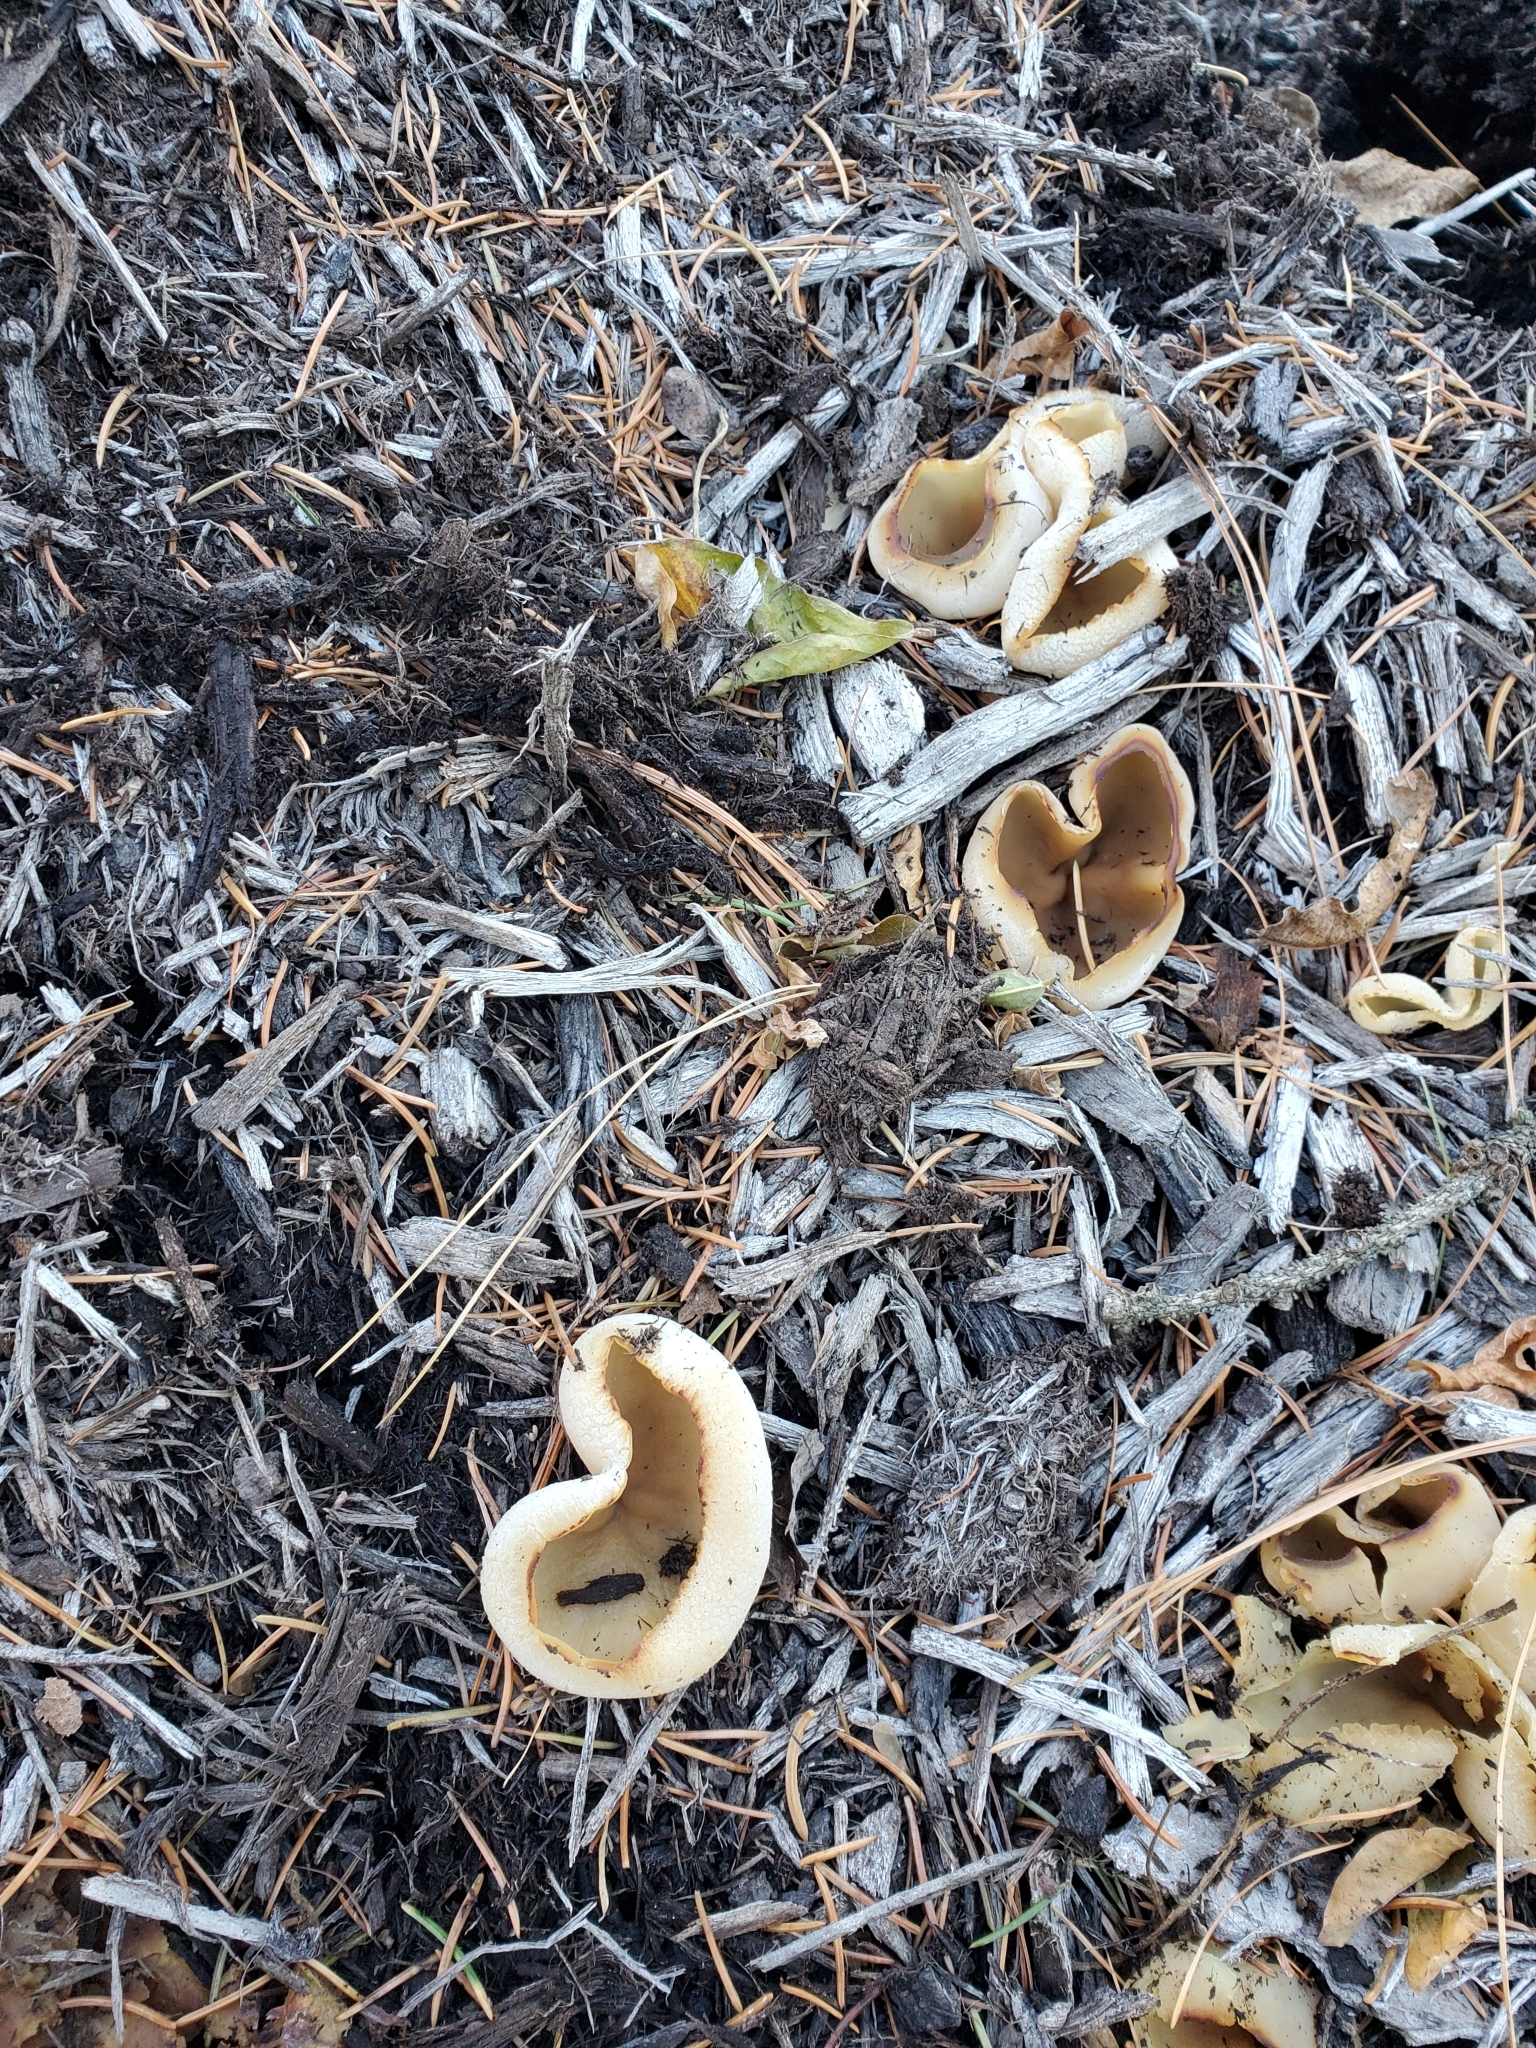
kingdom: Fungi
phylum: Ascomycota
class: Pezizomycetes
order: Pezizales
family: Pezizaceae
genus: Peziza
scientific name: Peziza vesiculosa
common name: Blistered cup
